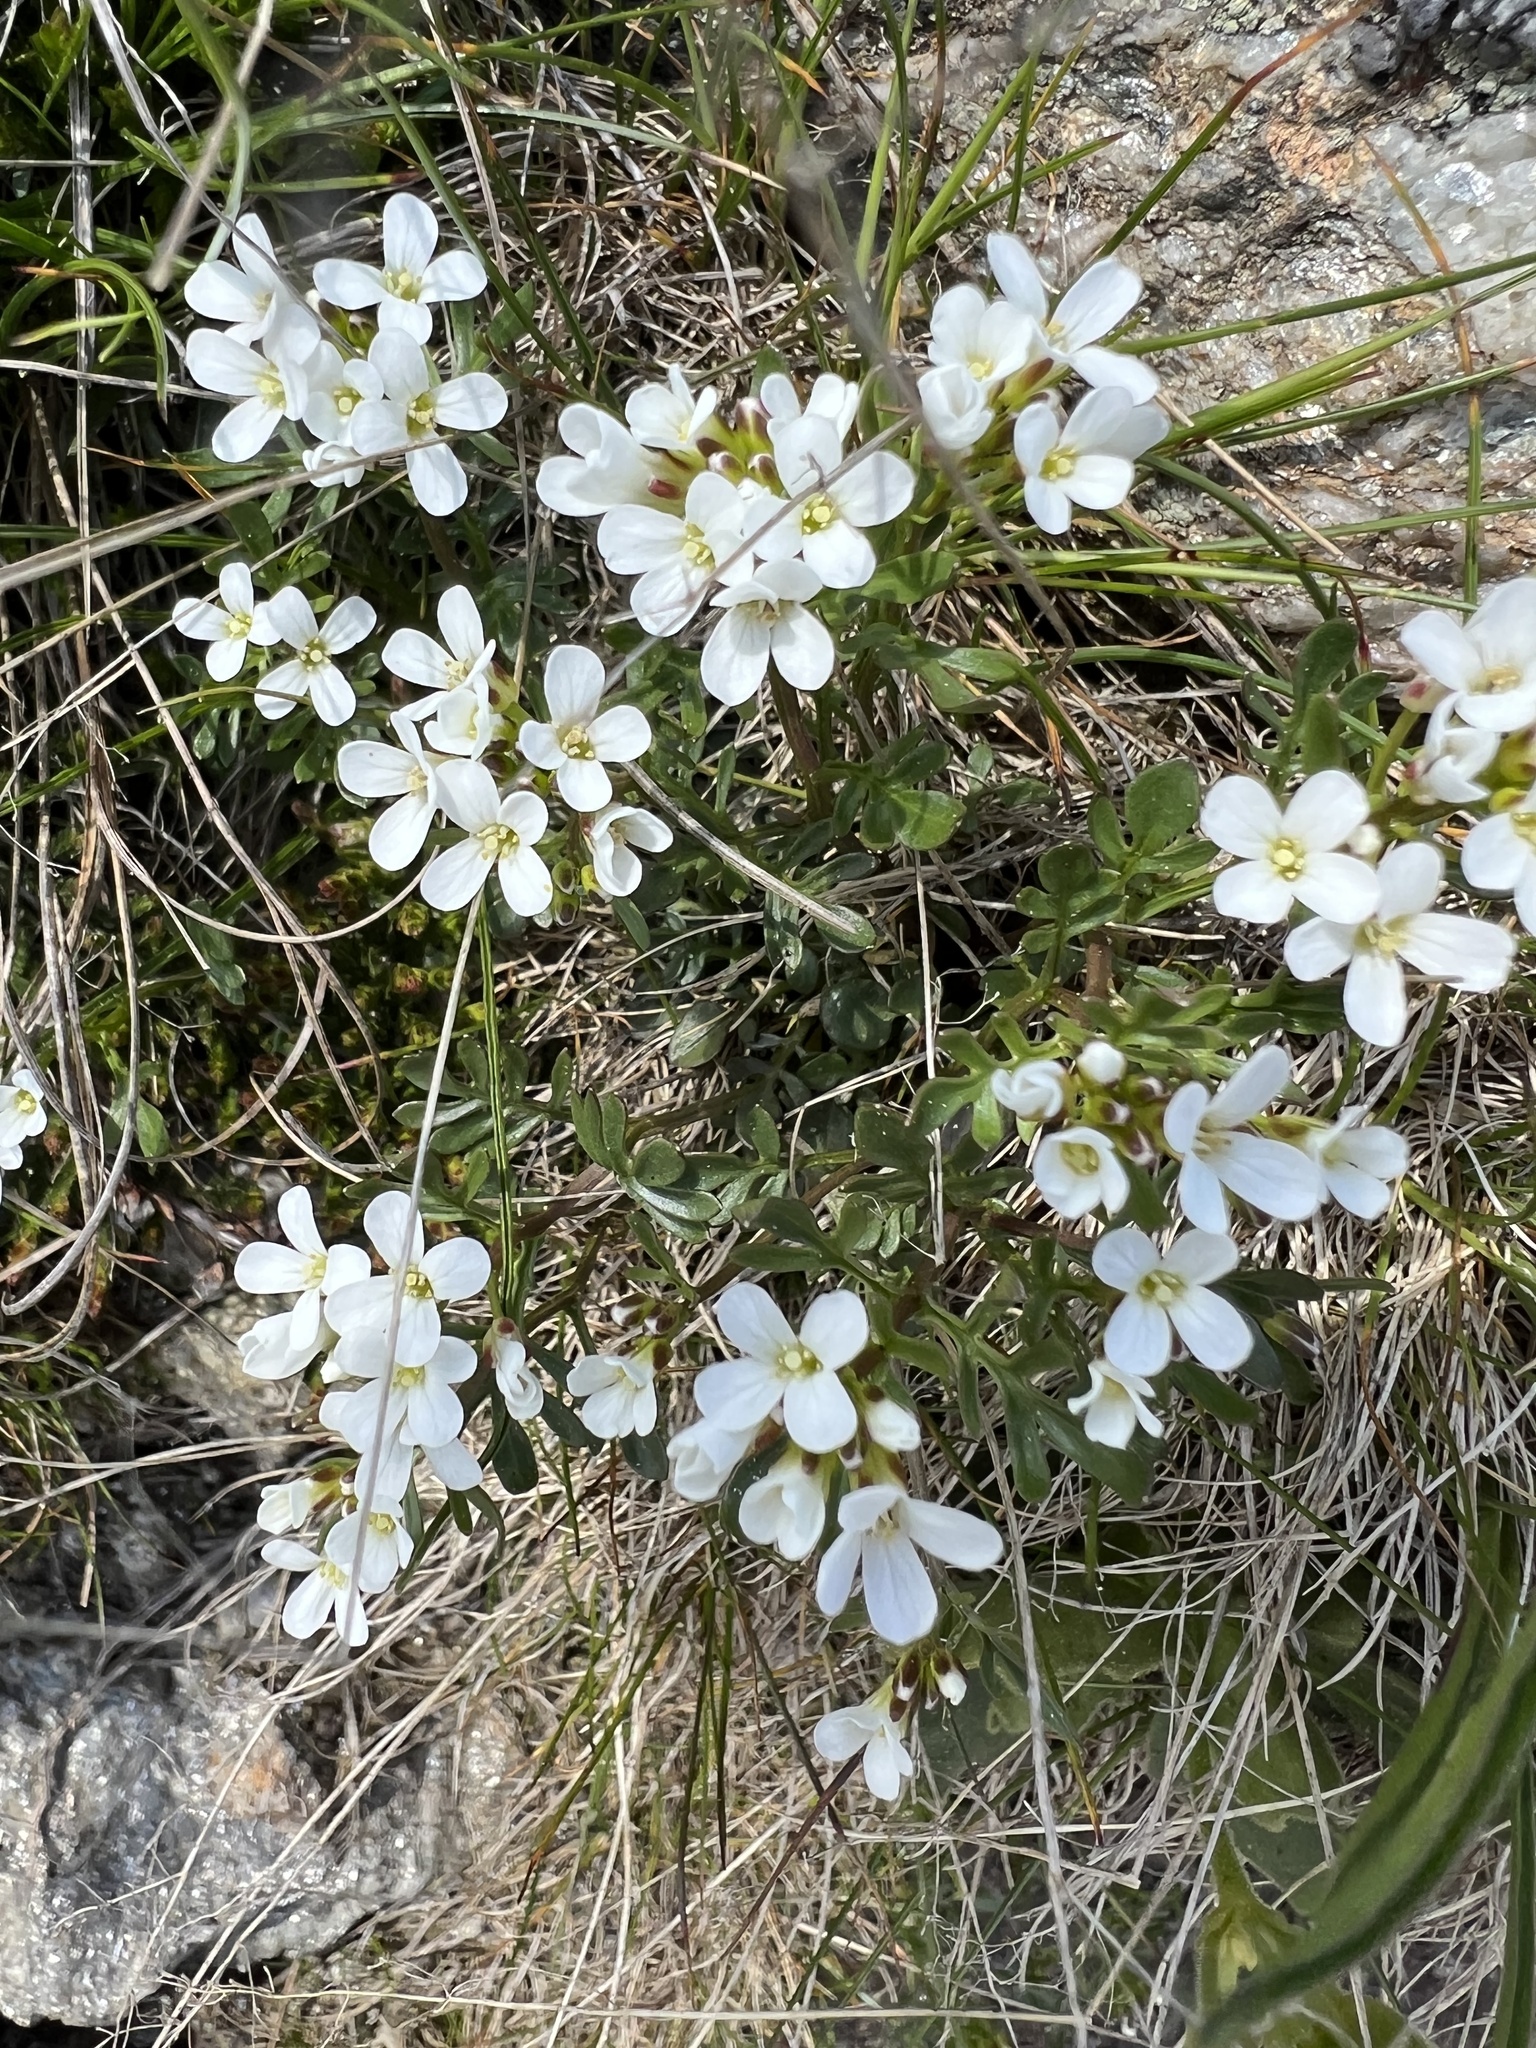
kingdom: Plantae
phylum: Tracheophyta
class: Magnoliopsida
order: Brassicales
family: Brassicaceae
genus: Cardamine
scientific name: Cardamine resedifolia
